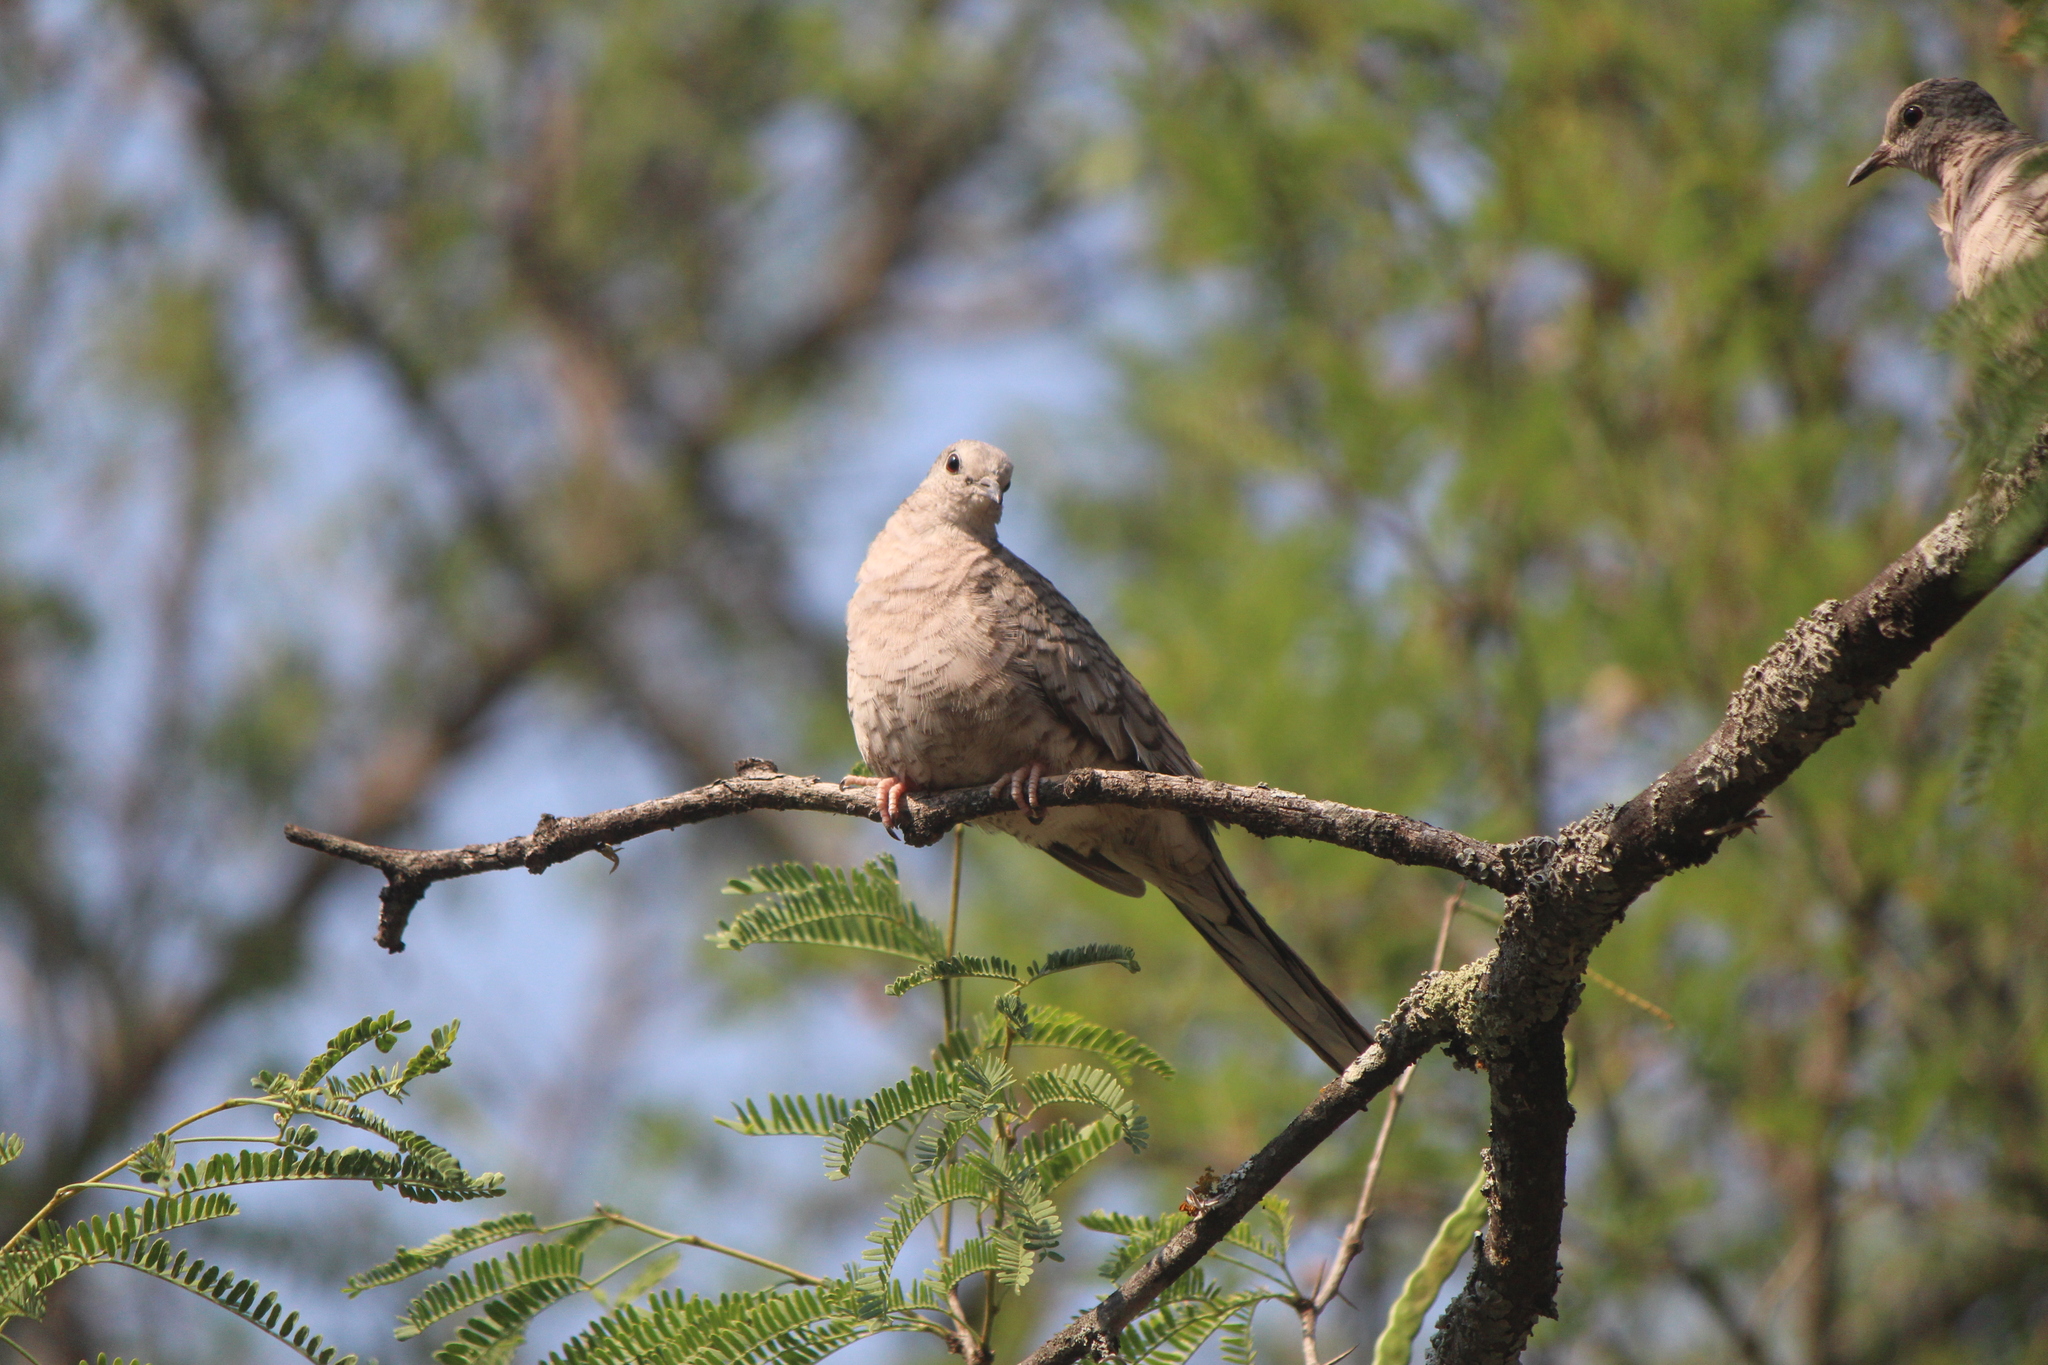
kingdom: Animalia
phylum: Chordata
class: Aves
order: Columbiformes
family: Columbidae
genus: Columbina
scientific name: Columbina inca
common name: Inca dove
